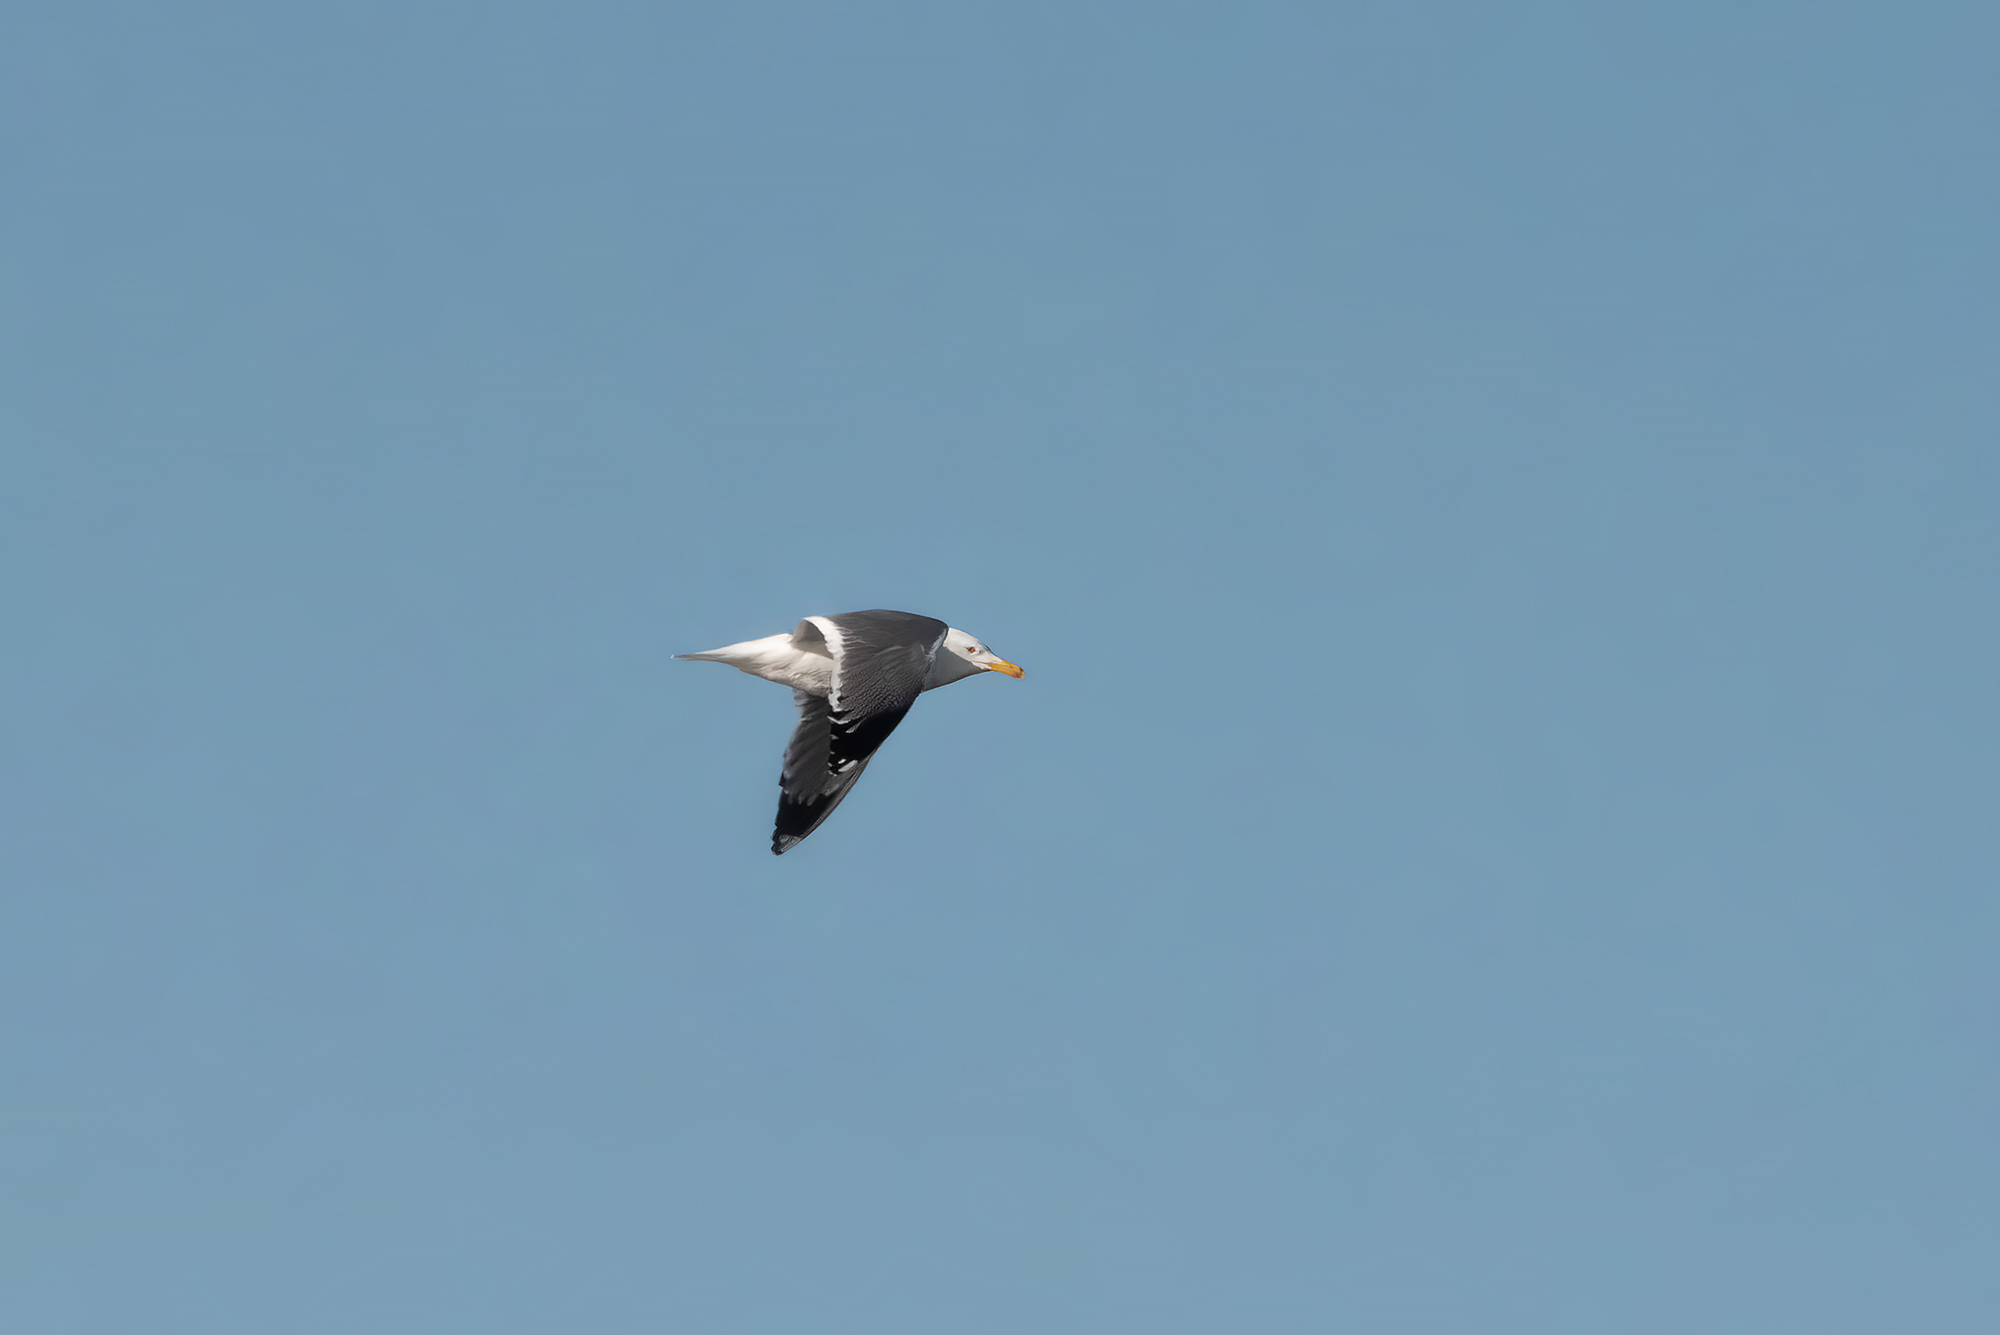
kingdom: Animalia
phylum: Chordata
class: Aves
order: Charadriiformes
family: Laridae
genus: Larus
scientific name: Larus fuscus
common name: Lesser black-backed gull
